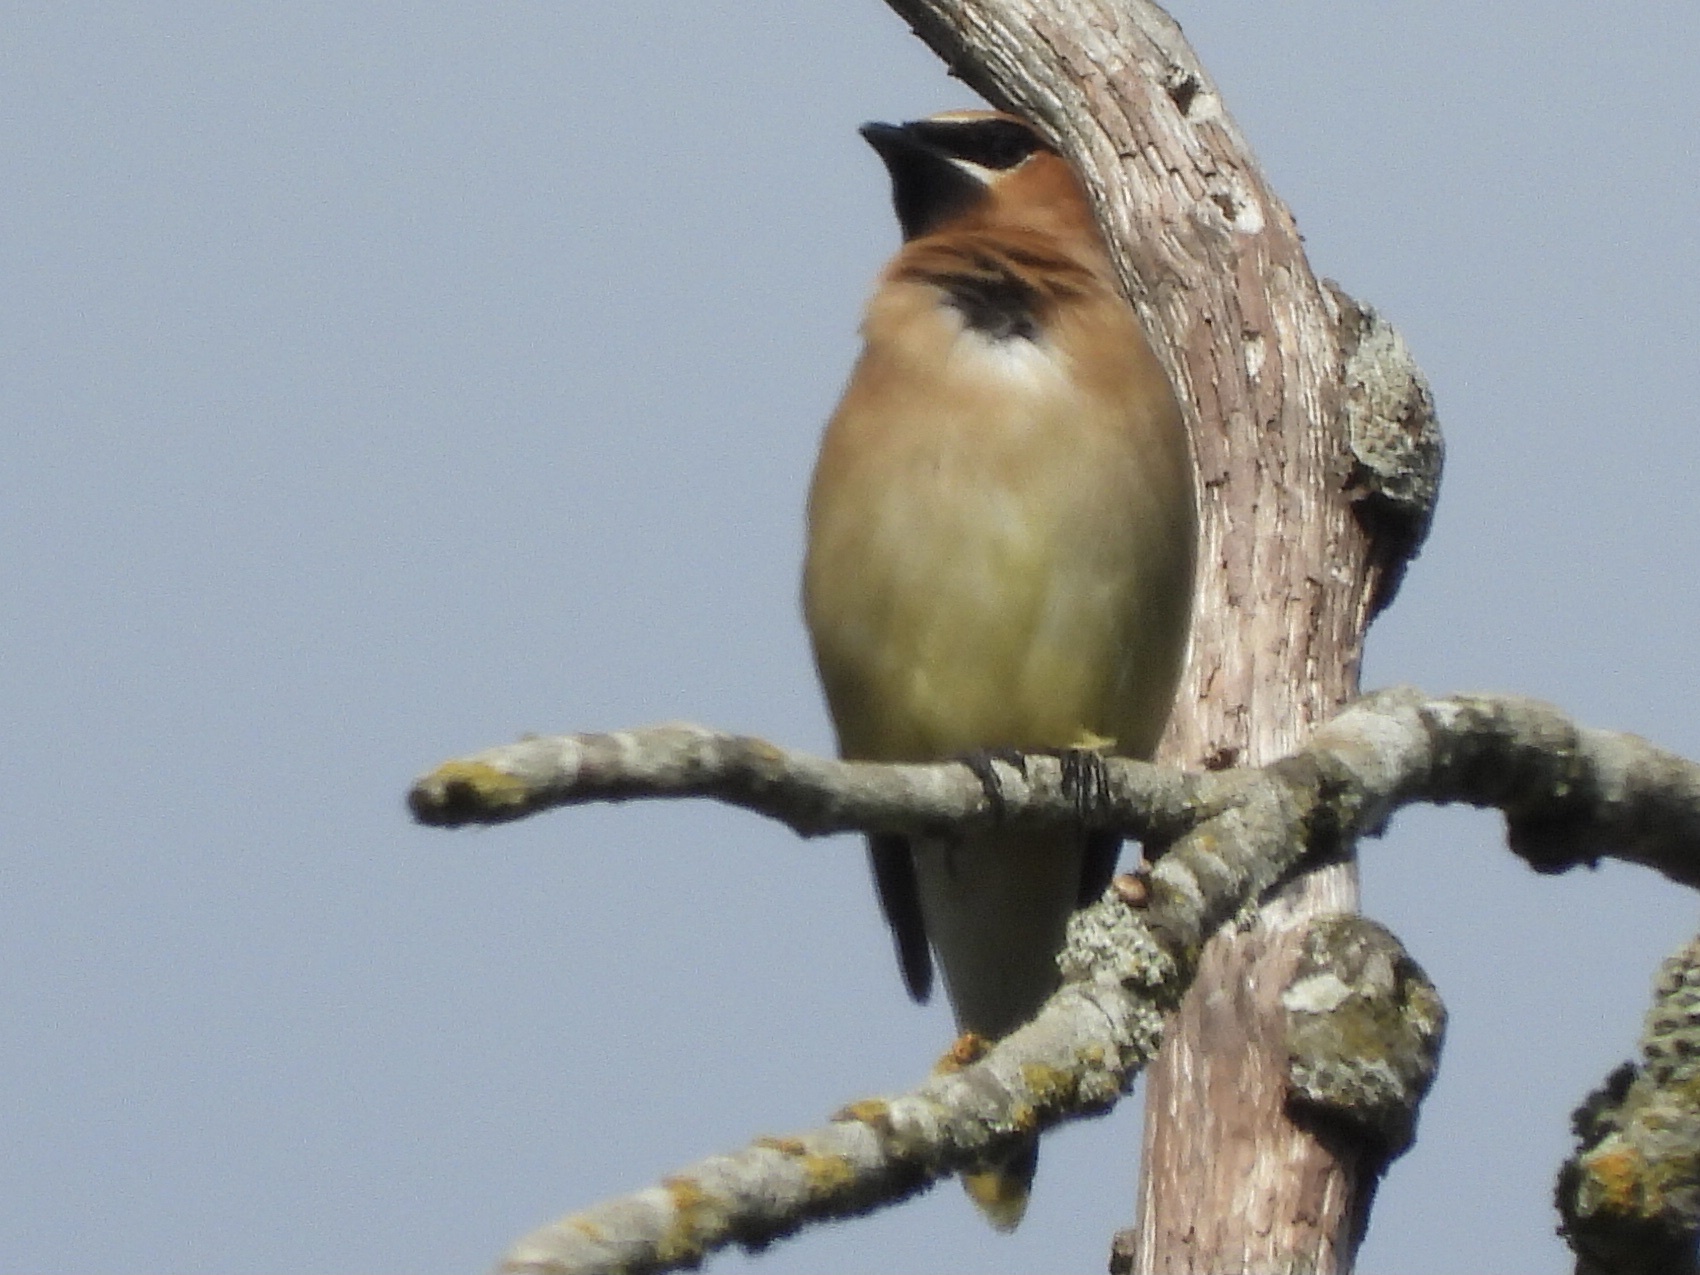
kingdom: Animalia
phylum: Chordata
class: Aves
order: Passeriformes
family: Bombycillidae
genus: Bombycilla
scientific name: Bombycilla cedrorum
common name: Cedar waxwing
